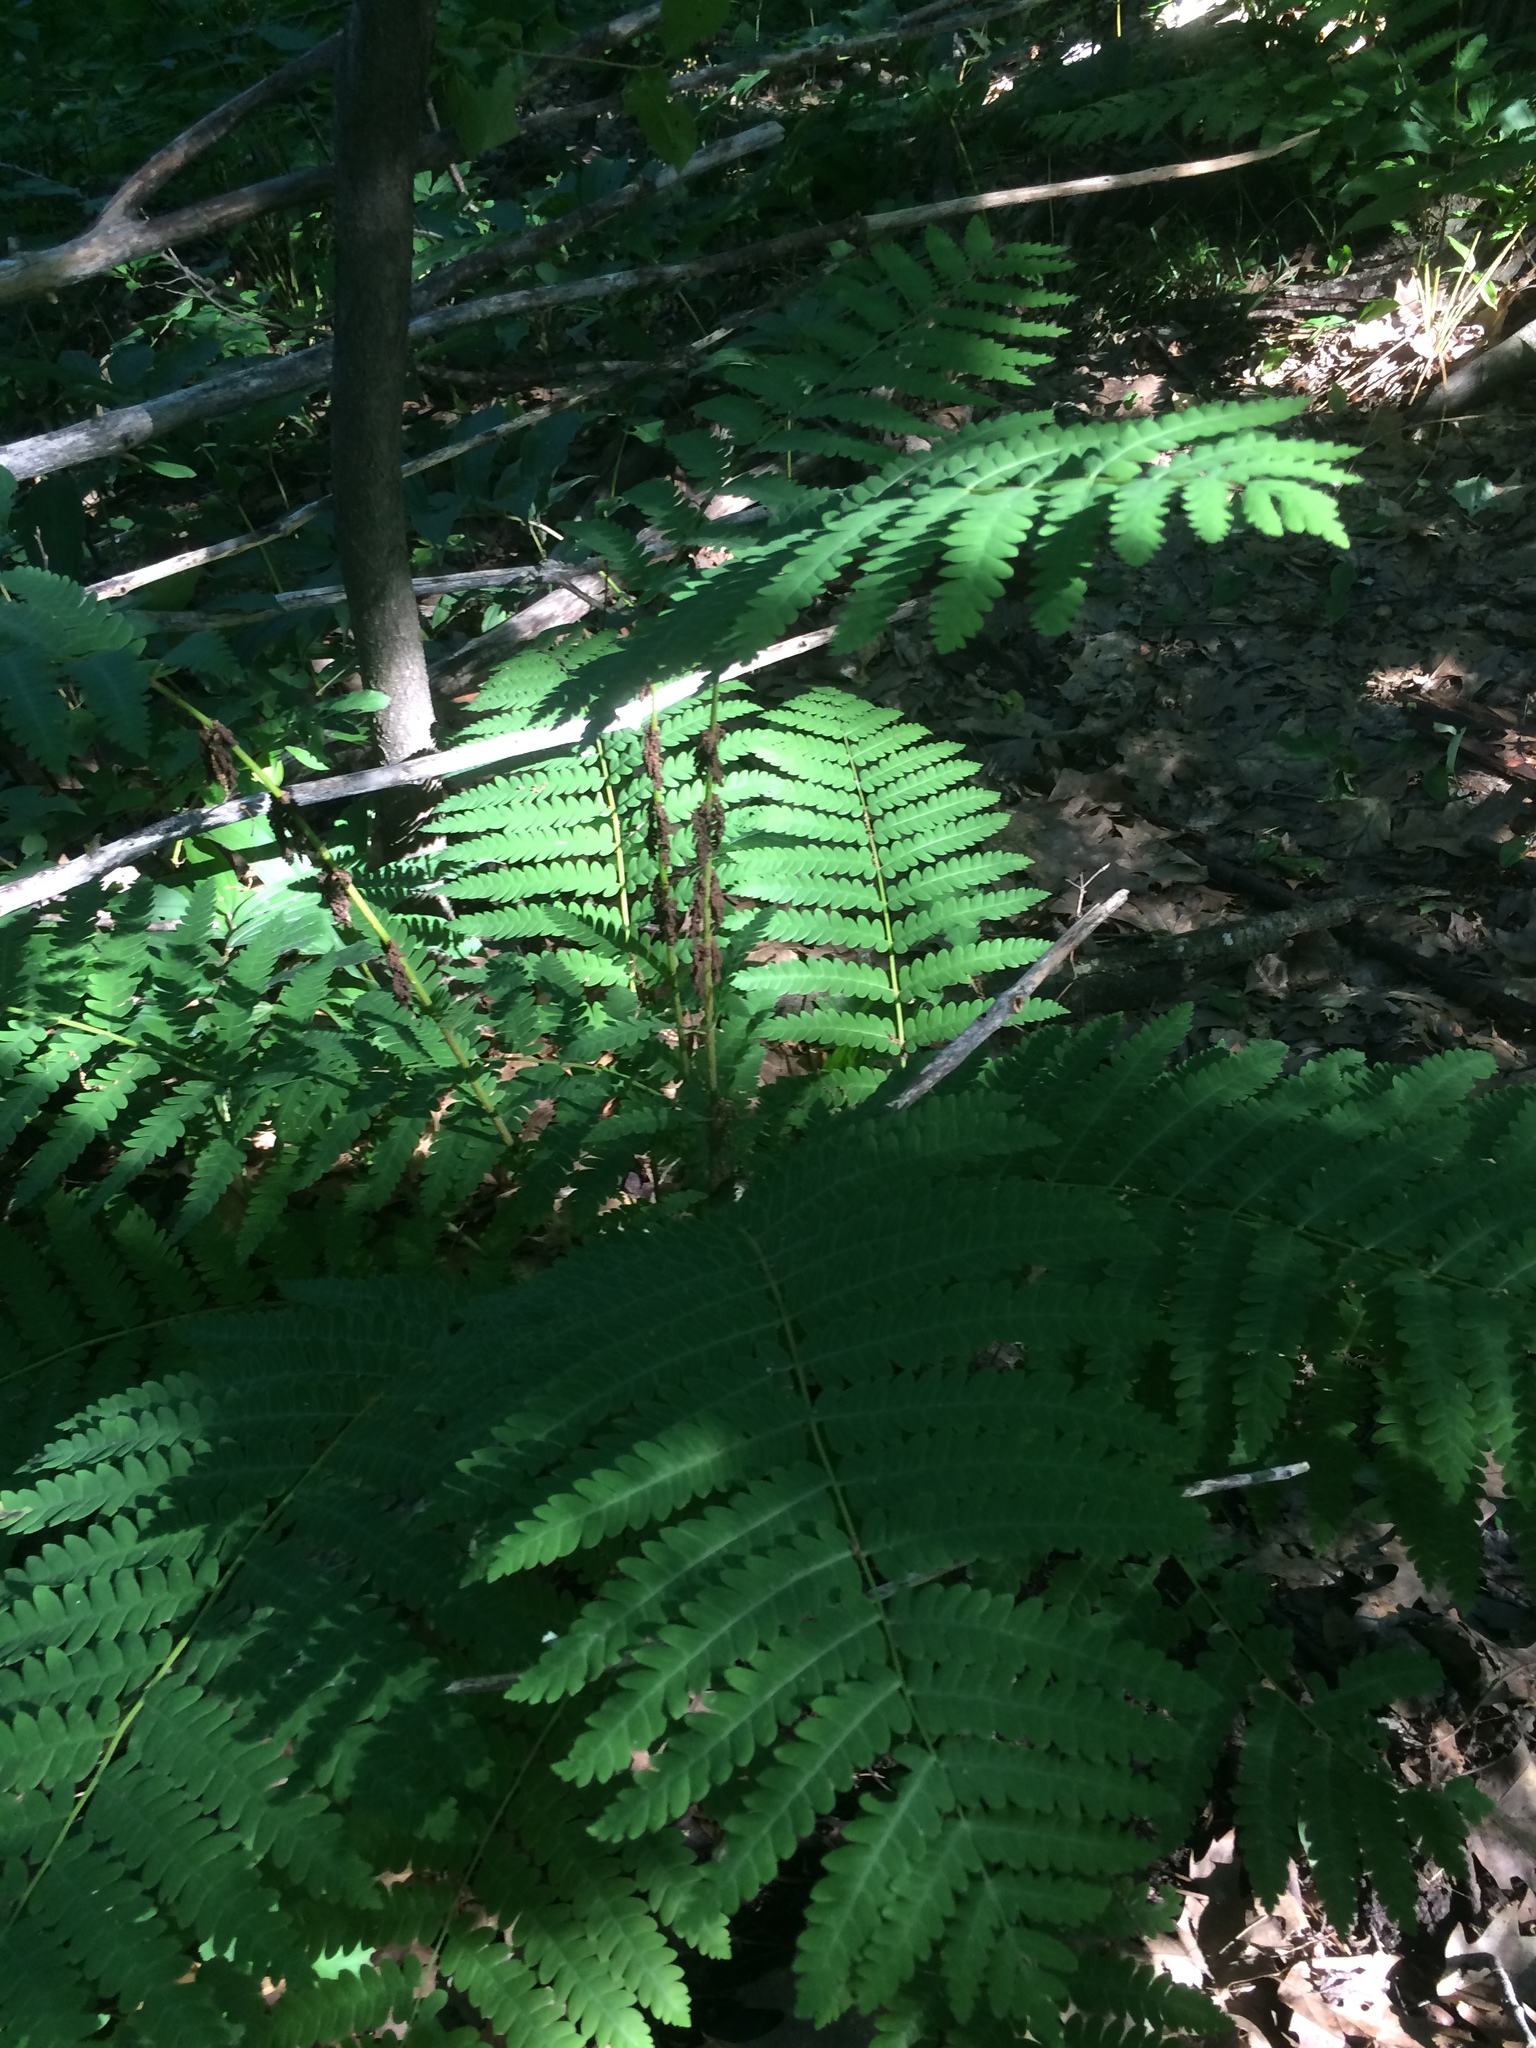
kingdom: Plantae
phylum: Tracheophyta
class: Polypodiopsida
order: Osmundales
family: Osmundaceae
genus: Claytosmunda
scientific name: Claytosmunda claytoniana
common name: Clayton's fern
